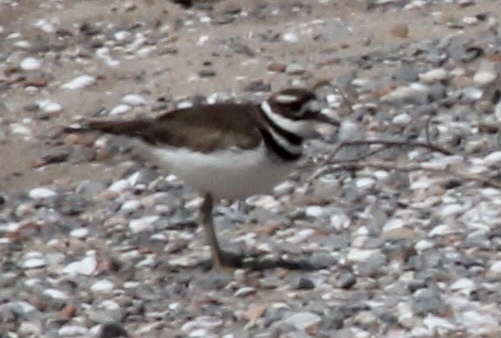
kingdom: Animalia
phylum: Chordata
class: Aves
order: Charadriiformes
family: Charadriidae
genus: Charadrius
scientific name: Charadrius vociferus
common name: Killdeer
